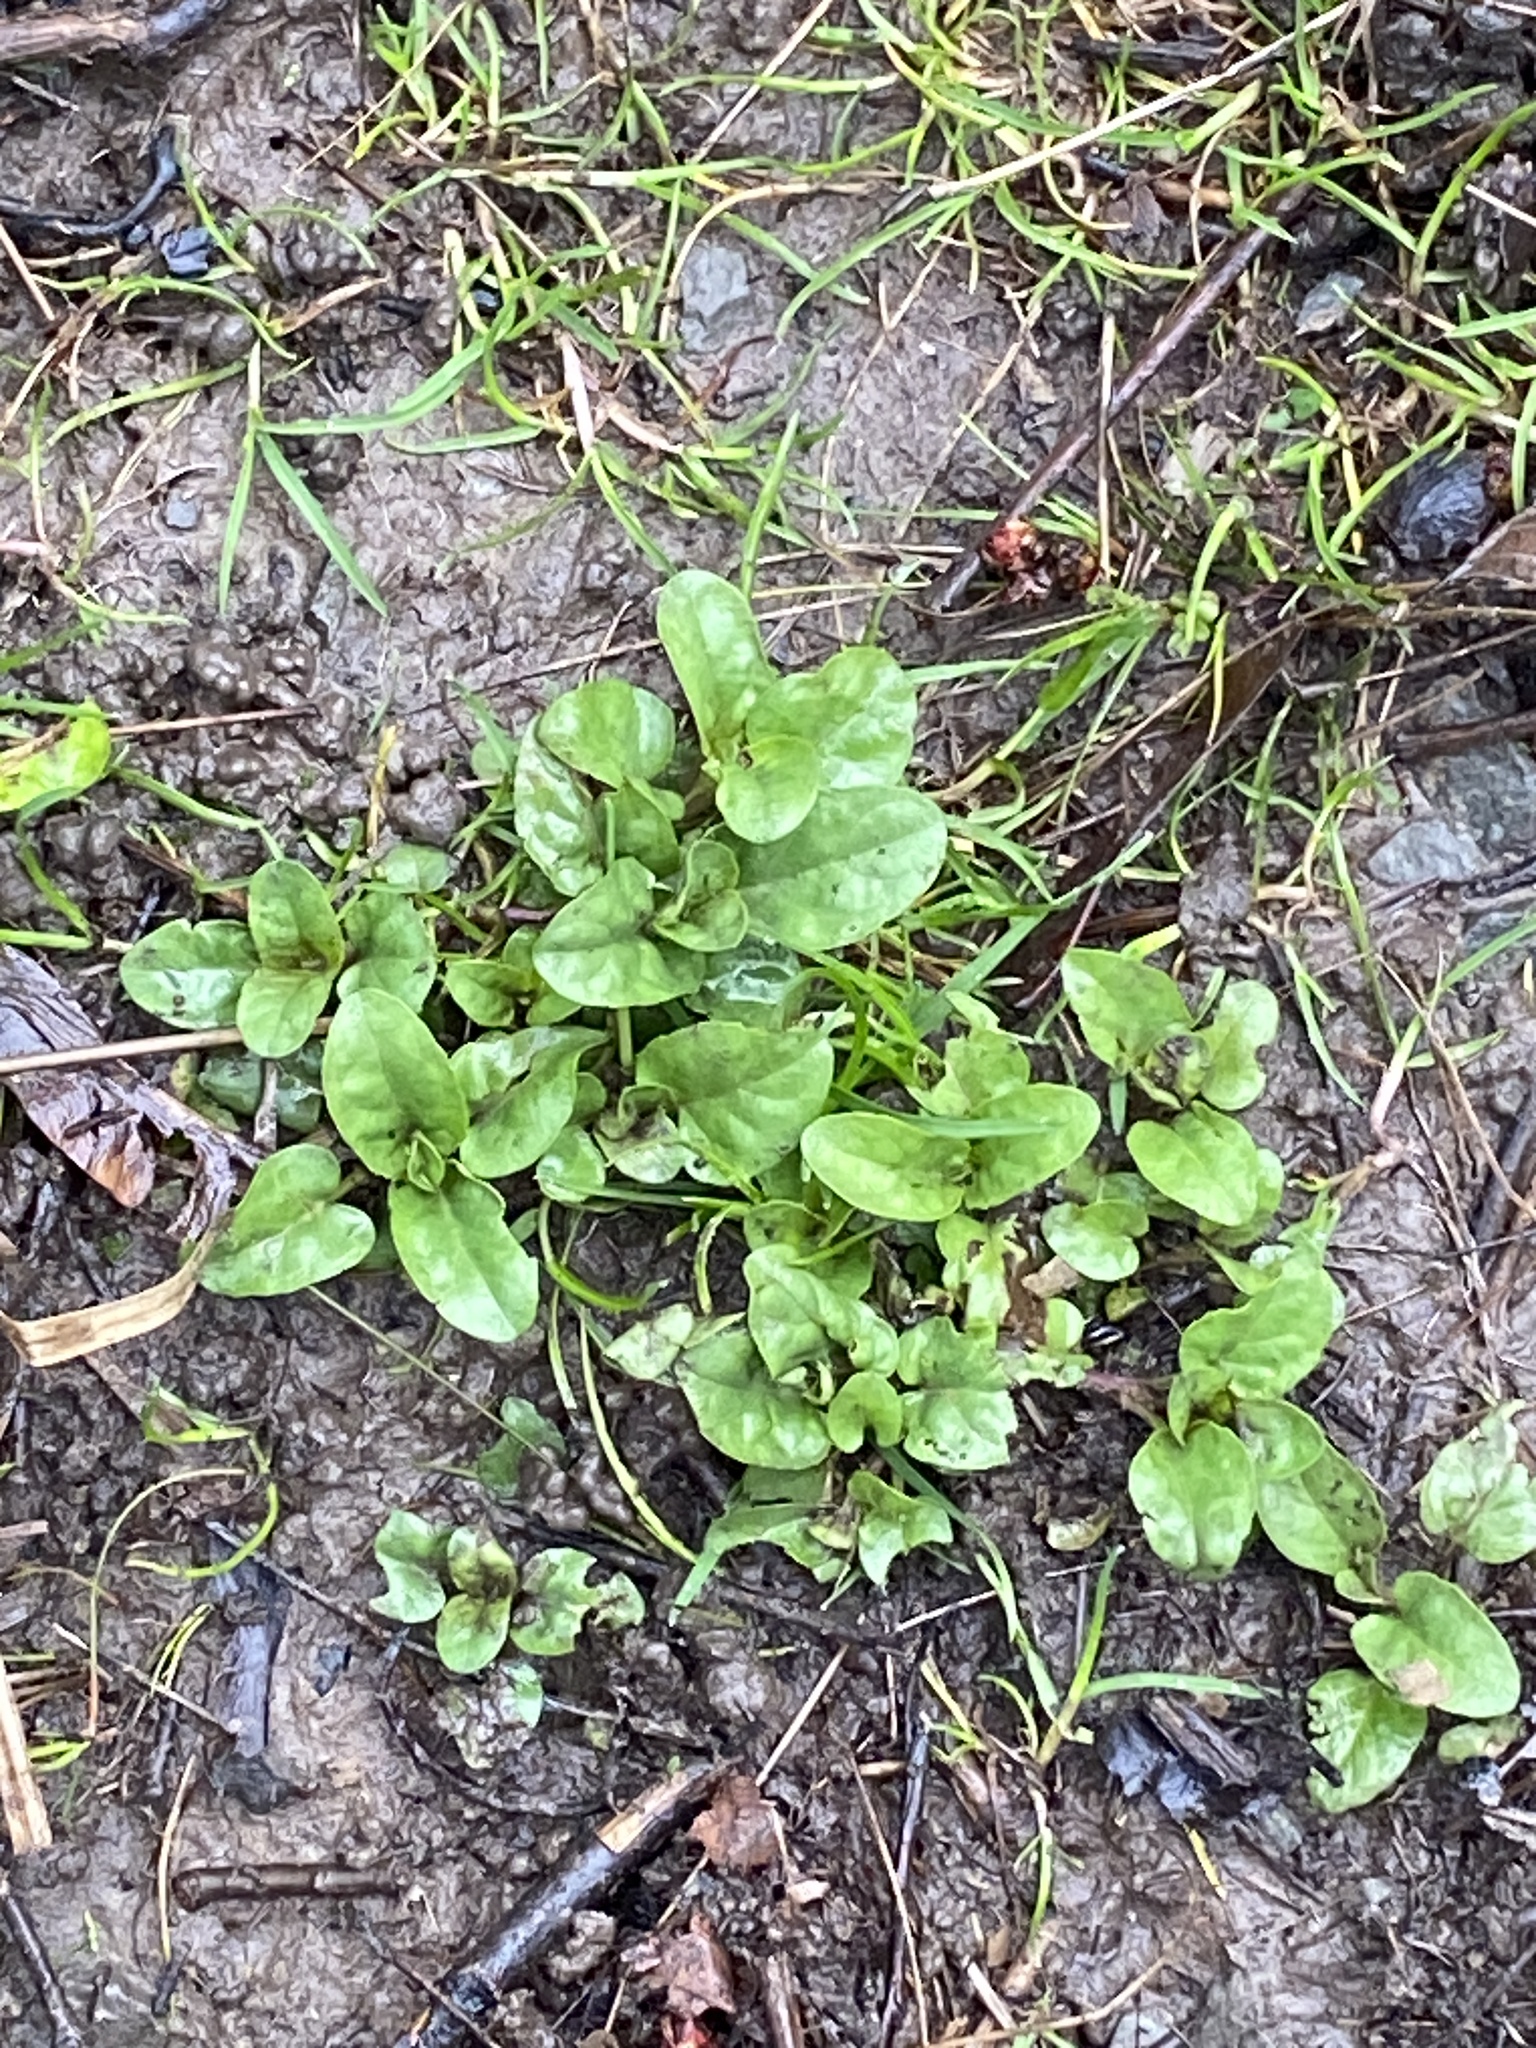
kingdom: Plantae
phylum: Tracheophyta
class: Magnoliopsida
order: Lamiales
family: Lamiaceae
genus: Prunella
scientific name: Prunella vulgaris
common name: Heal-all
